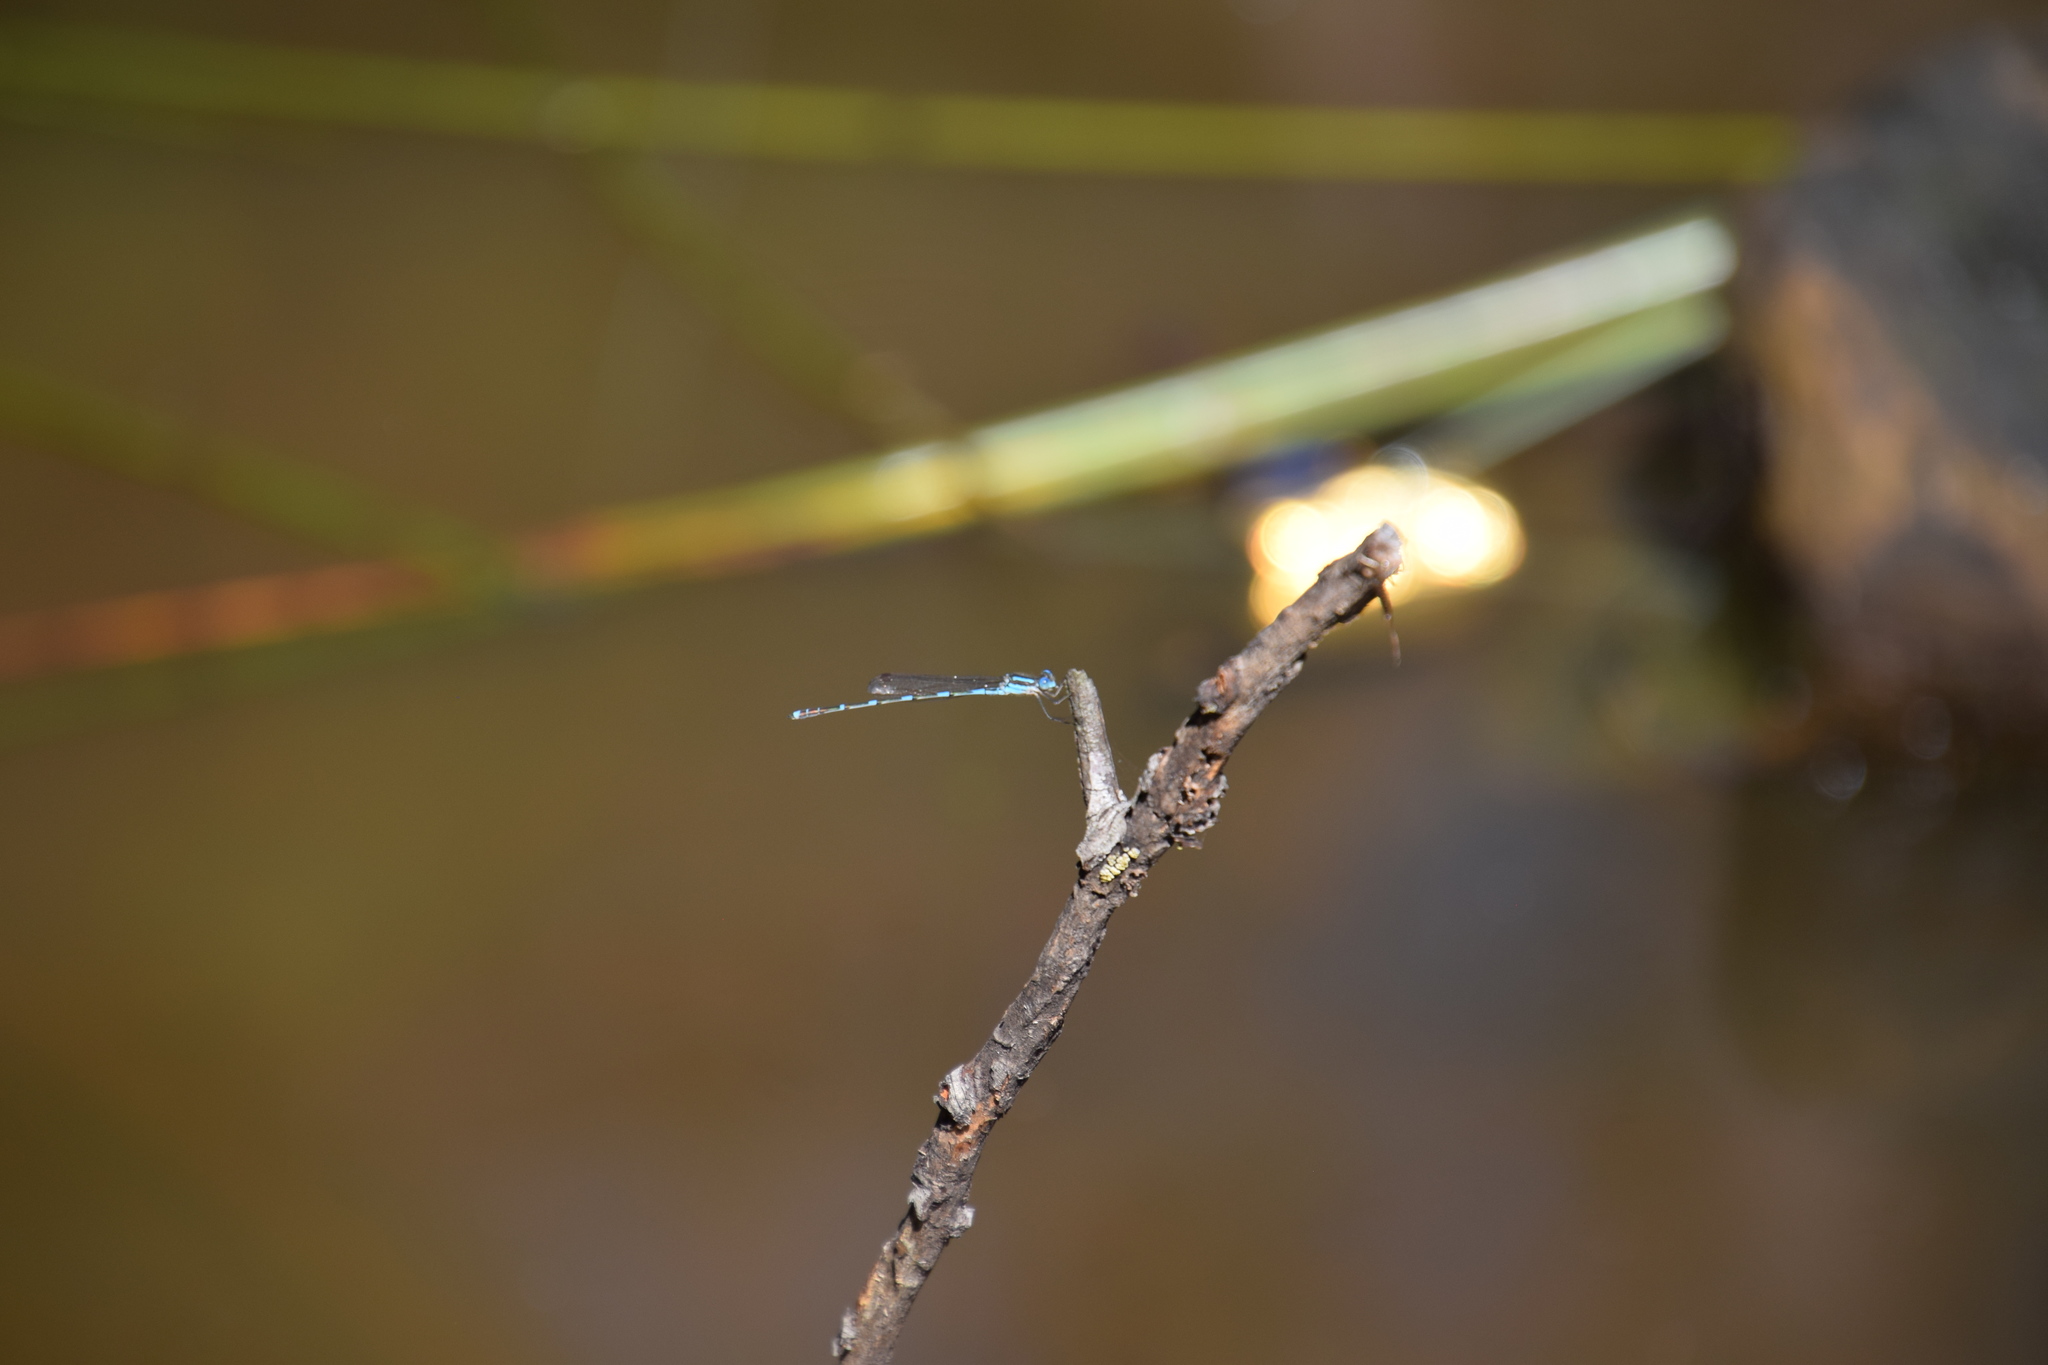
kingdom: Animalia
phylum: Arthropoda
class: Insecta
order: Odonata
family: Lestidae
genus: Austrolestes
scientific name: Austrolestes leda
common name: Wandering ringtail
